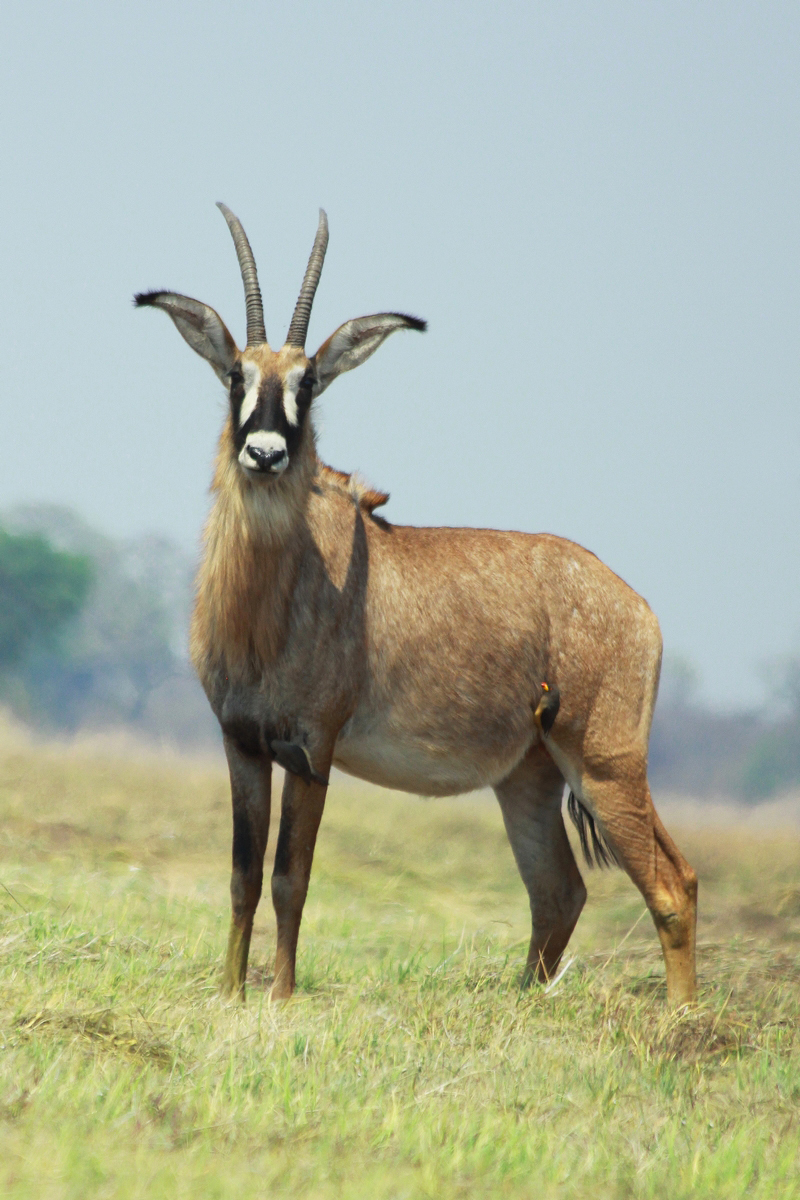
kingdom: Animalia
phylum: Chordata
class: Mammalia
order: Artiodactyla
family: Bovidae
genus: Hippotragus
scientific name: Hippotragus equinus
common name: Roan antelope
